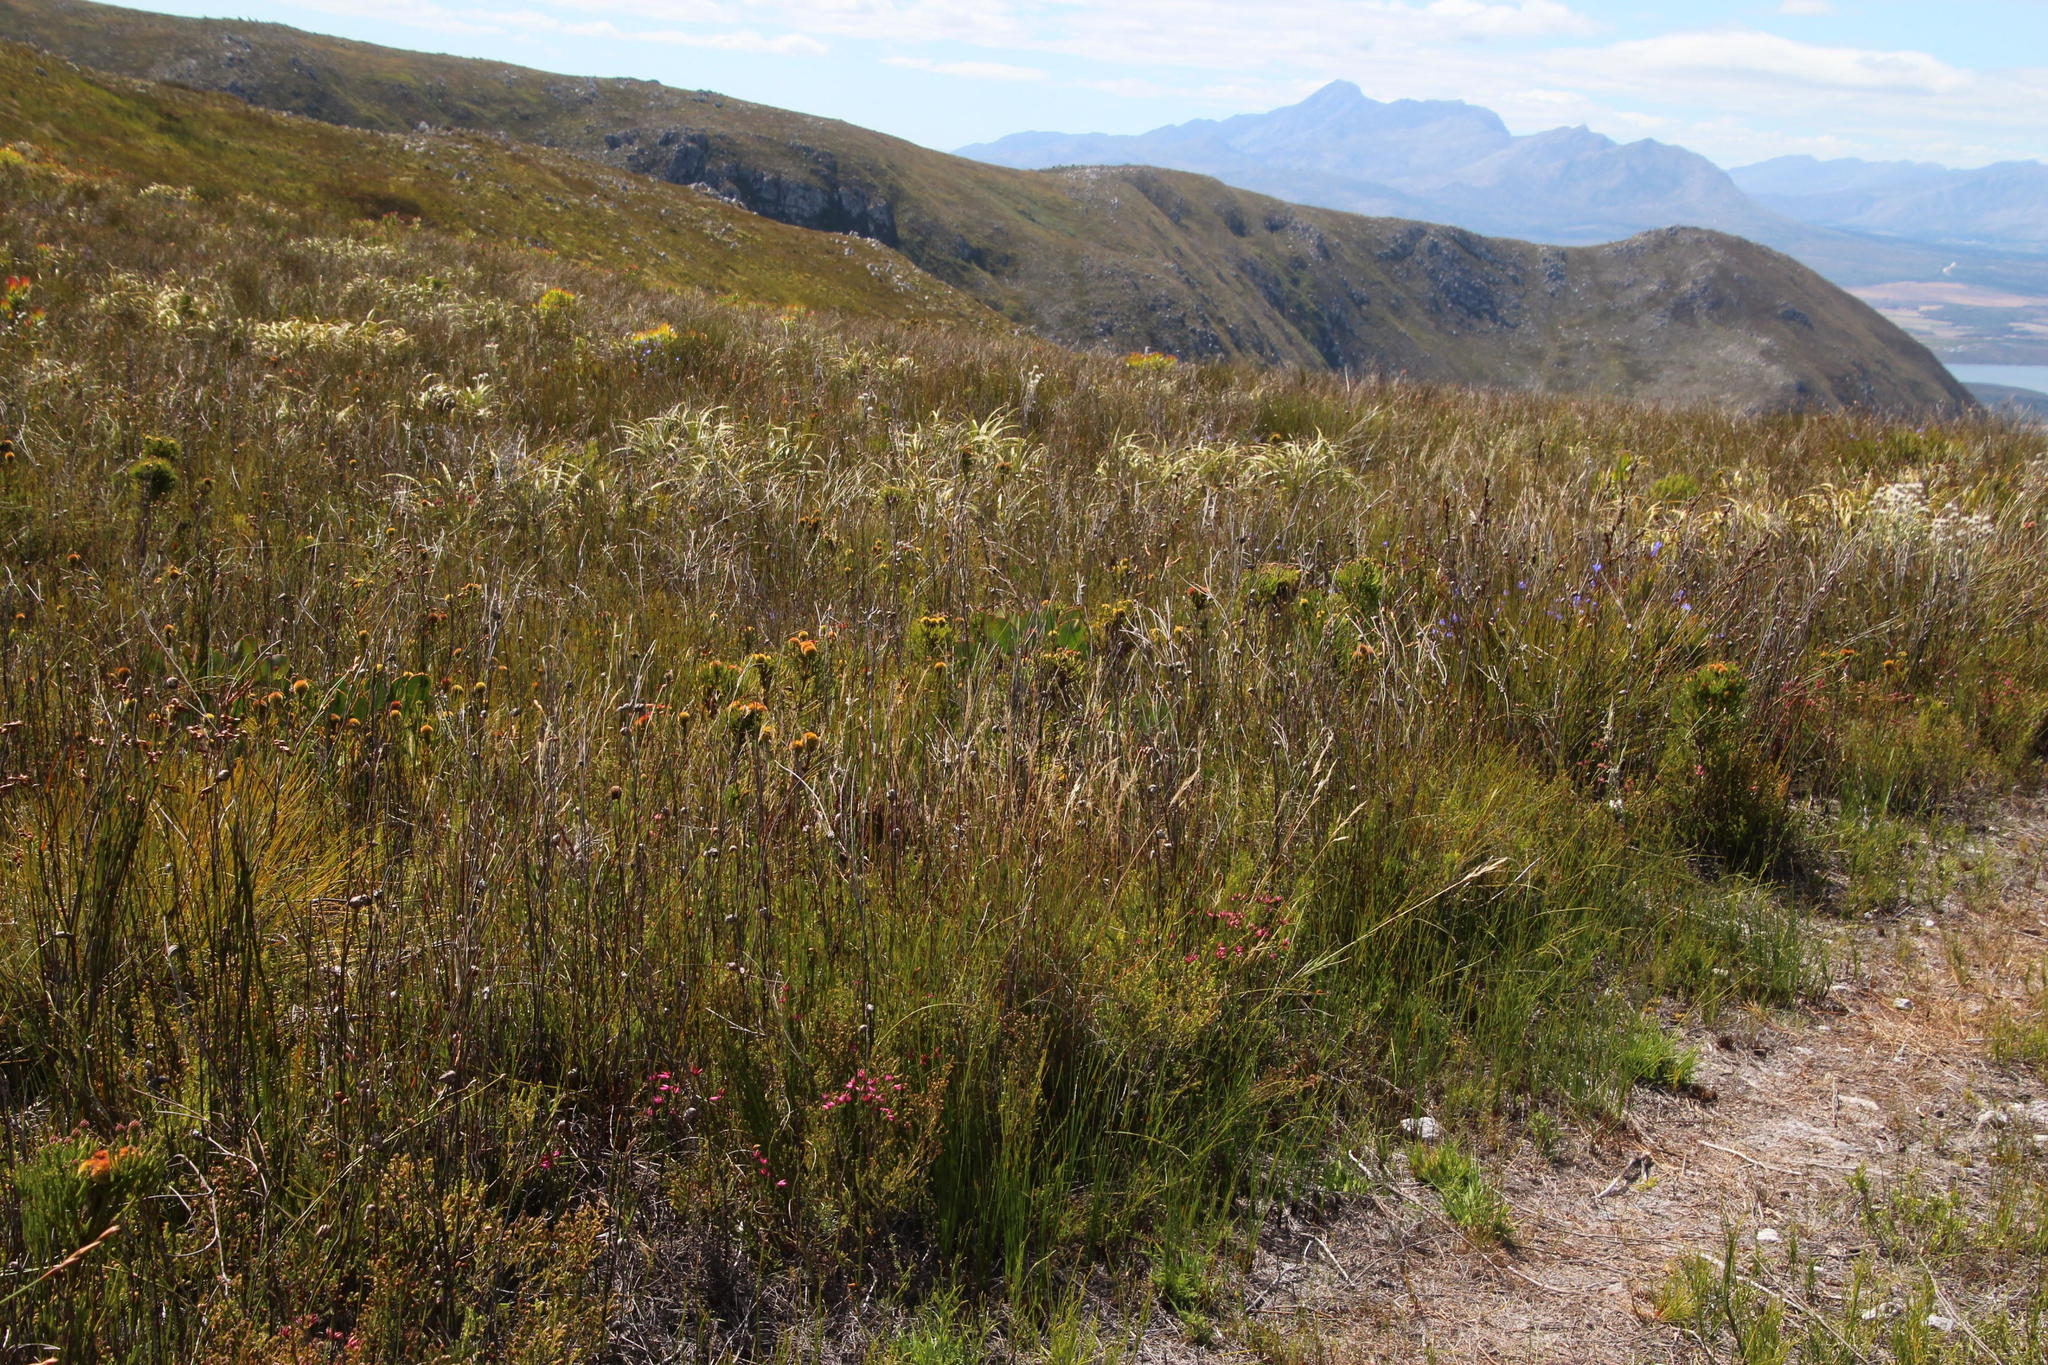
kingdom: Plantae
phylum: Tracheophyta
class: Magnoliopsida
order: Ericales
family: Ericaceae
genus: Erica
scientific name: Erica cristata
